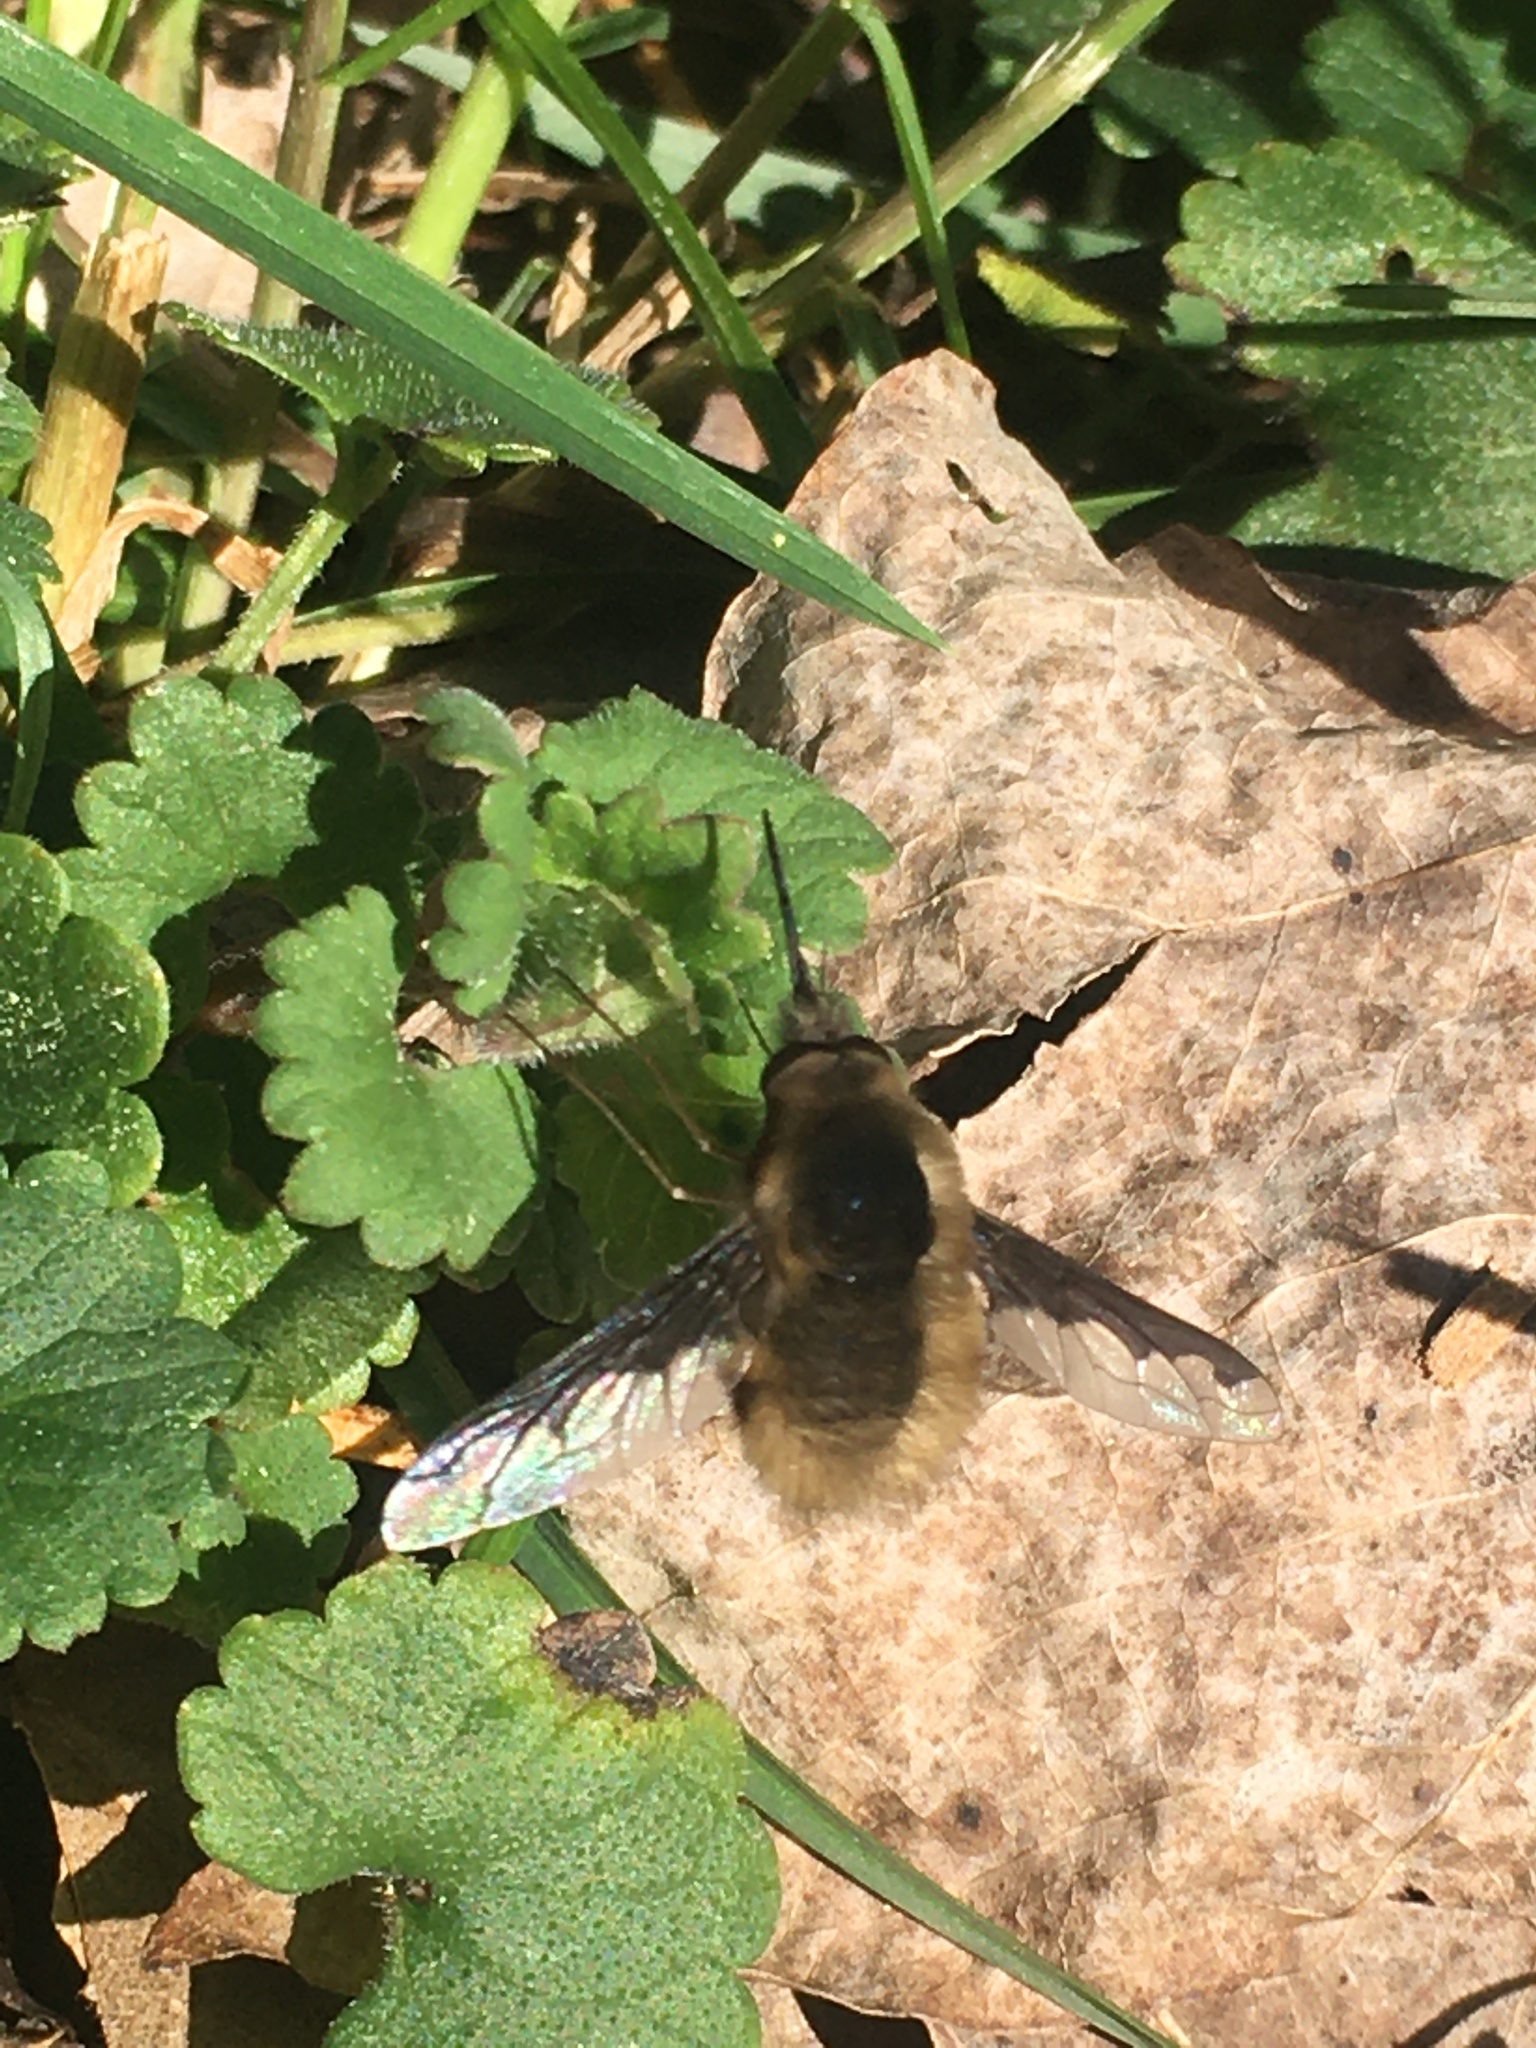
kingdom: Animalia
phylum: Arthropoda
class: Insecta
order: Diptera
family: Bombyliidae
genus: Bombylius
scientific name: Bombylius major
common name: Bee fly
